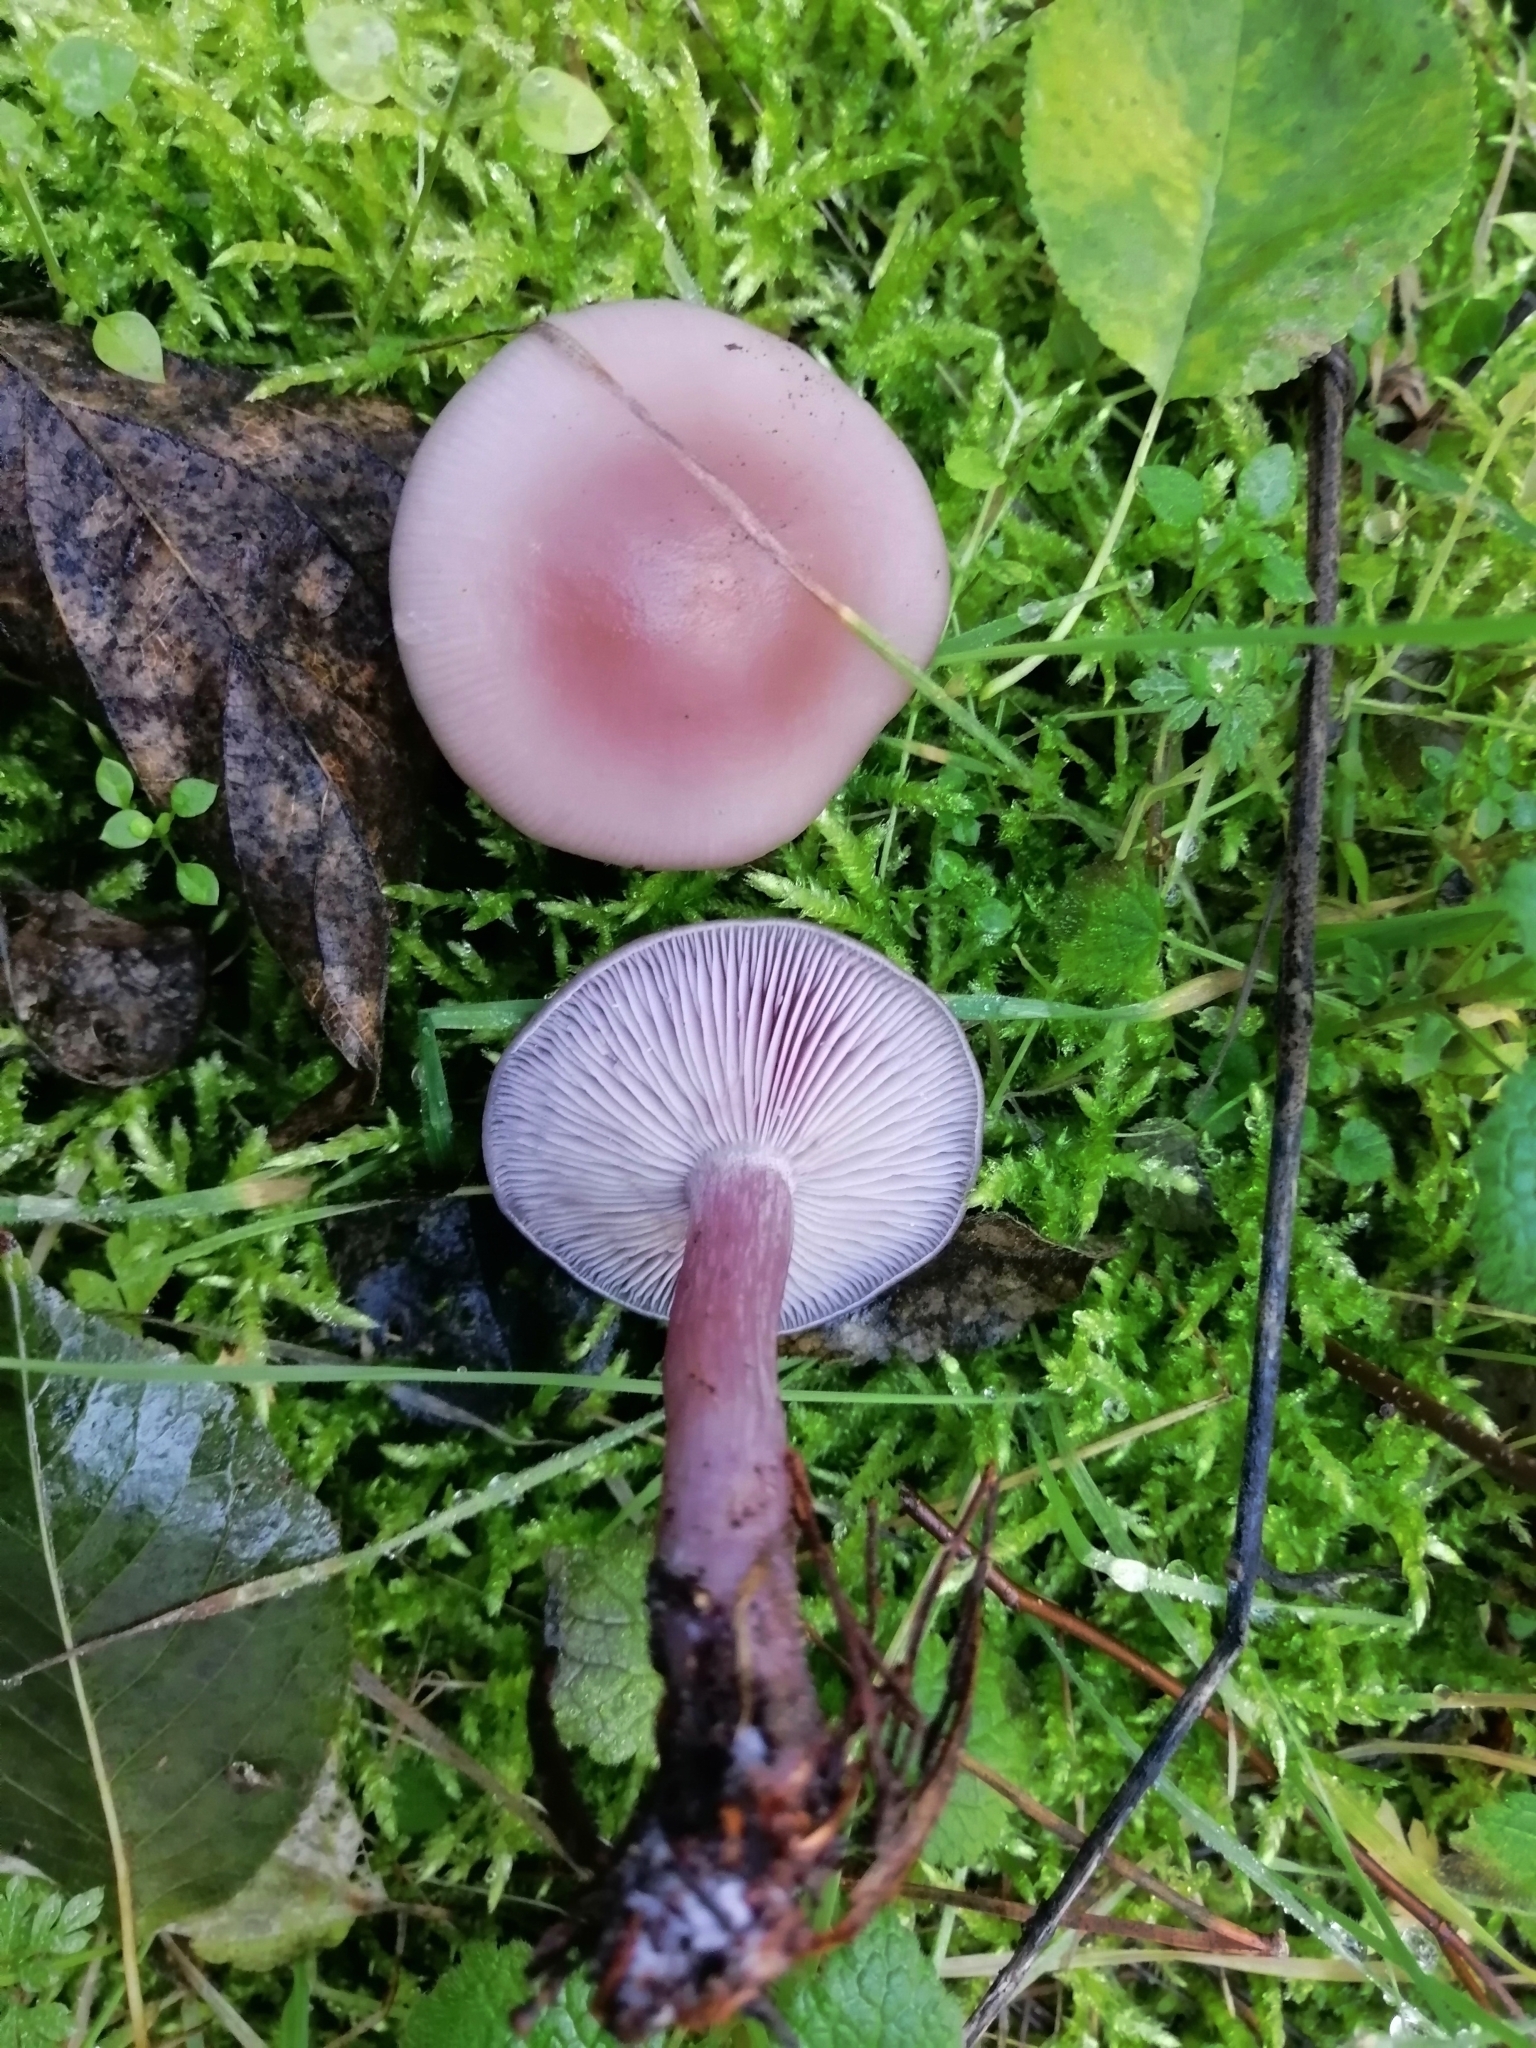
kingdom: Fungi
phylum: Basidiomycota
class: Agaricomycetes
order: Agaricales
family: Tricholomataceae
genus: Collybia
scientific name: Collybia
